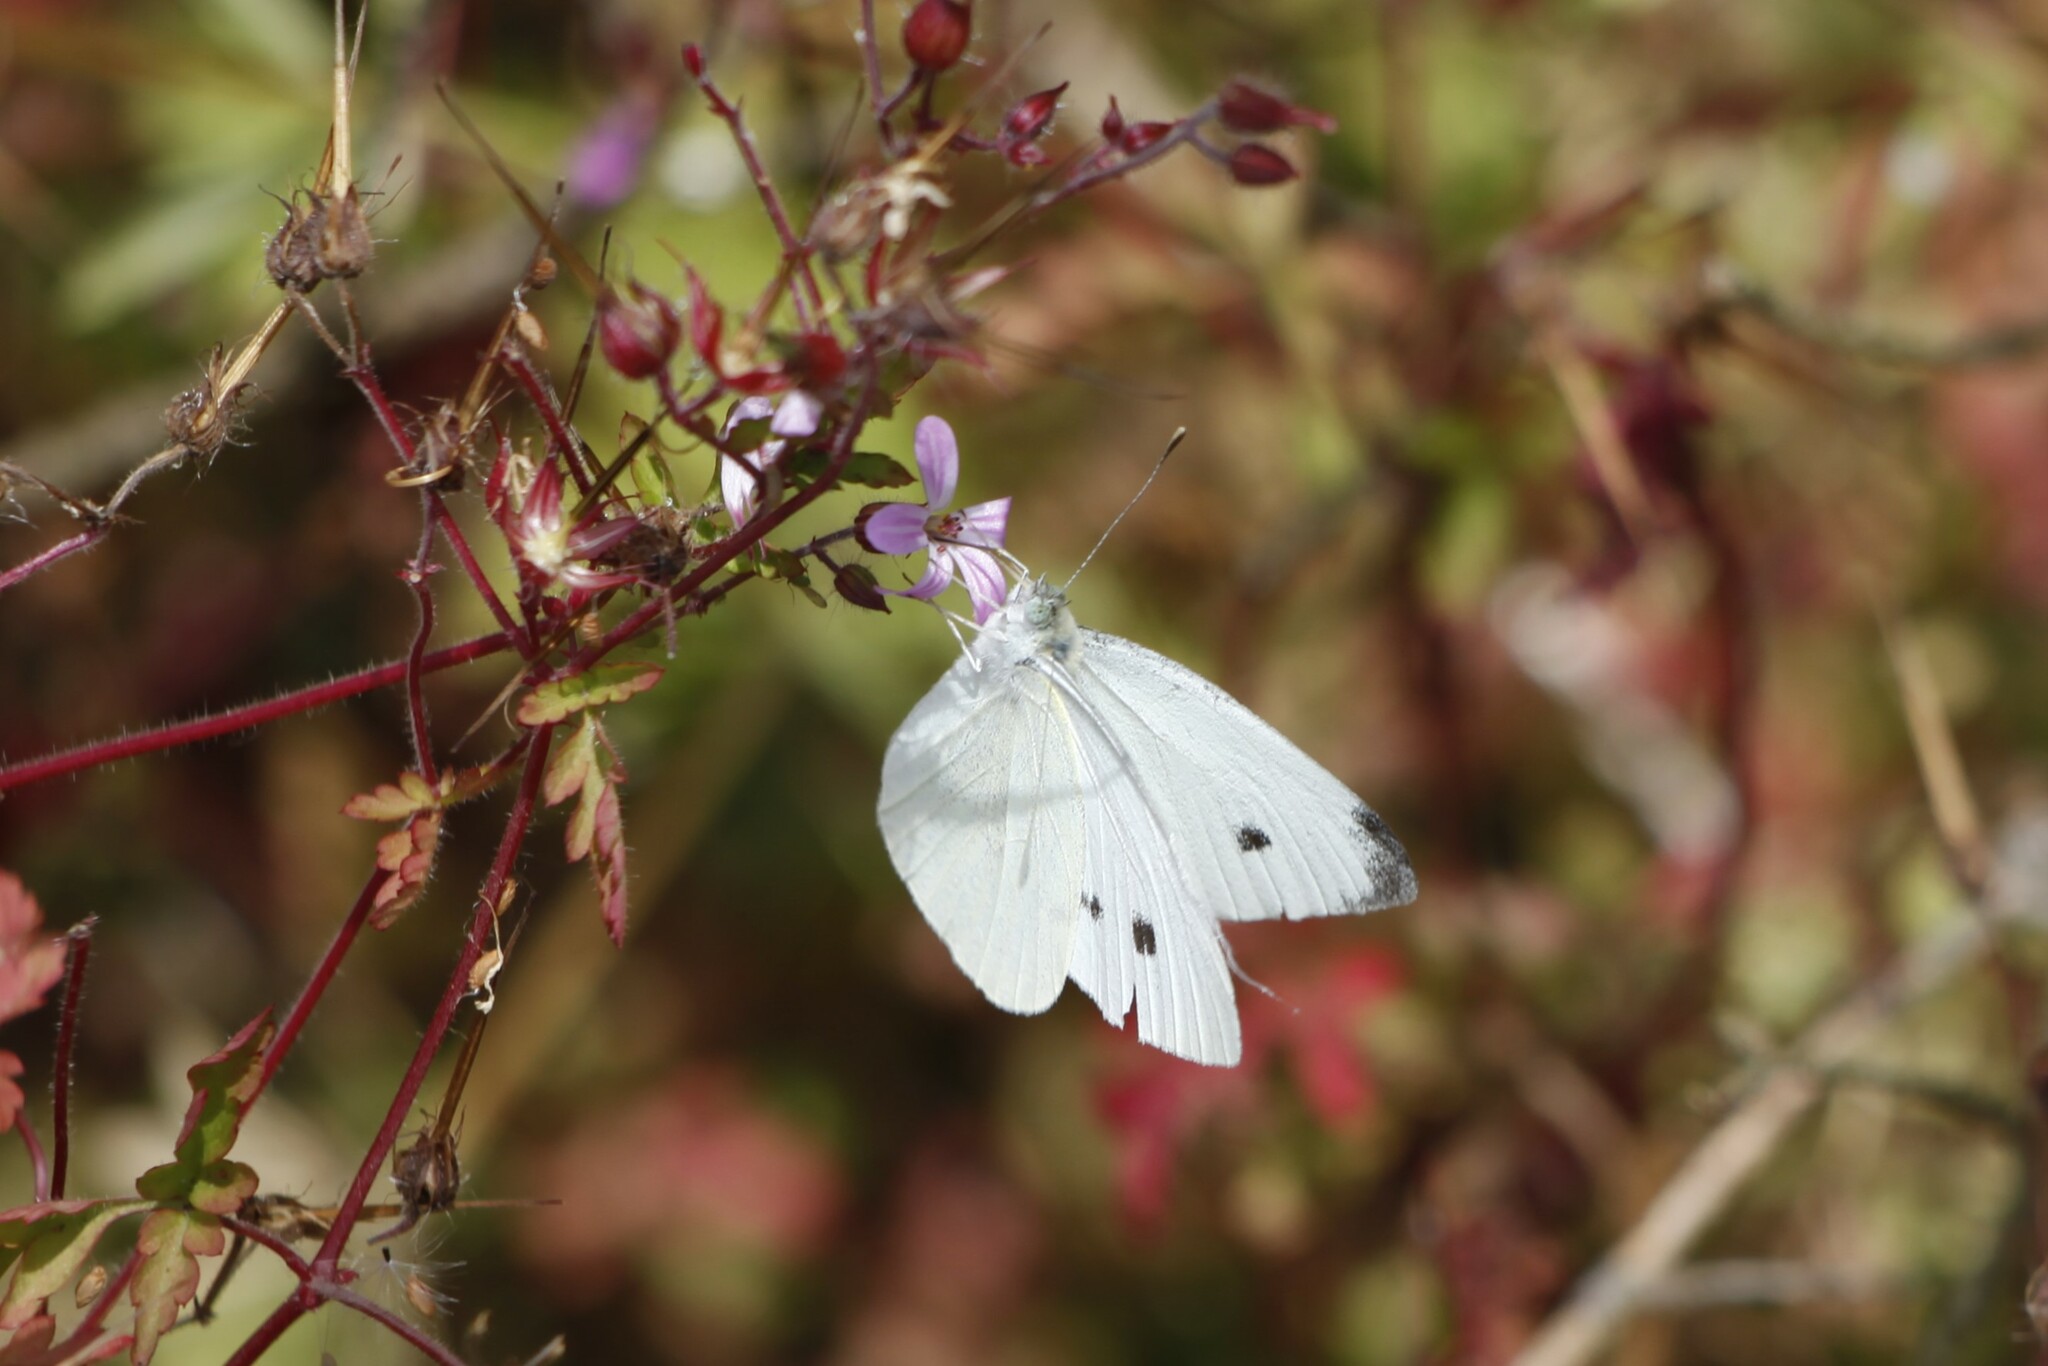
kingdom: Animalia
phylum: Arthropoda
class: Insecta
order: Lepidoptera
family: Pieridae
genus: Pieris
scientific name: Pieris rapae
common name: Small white
